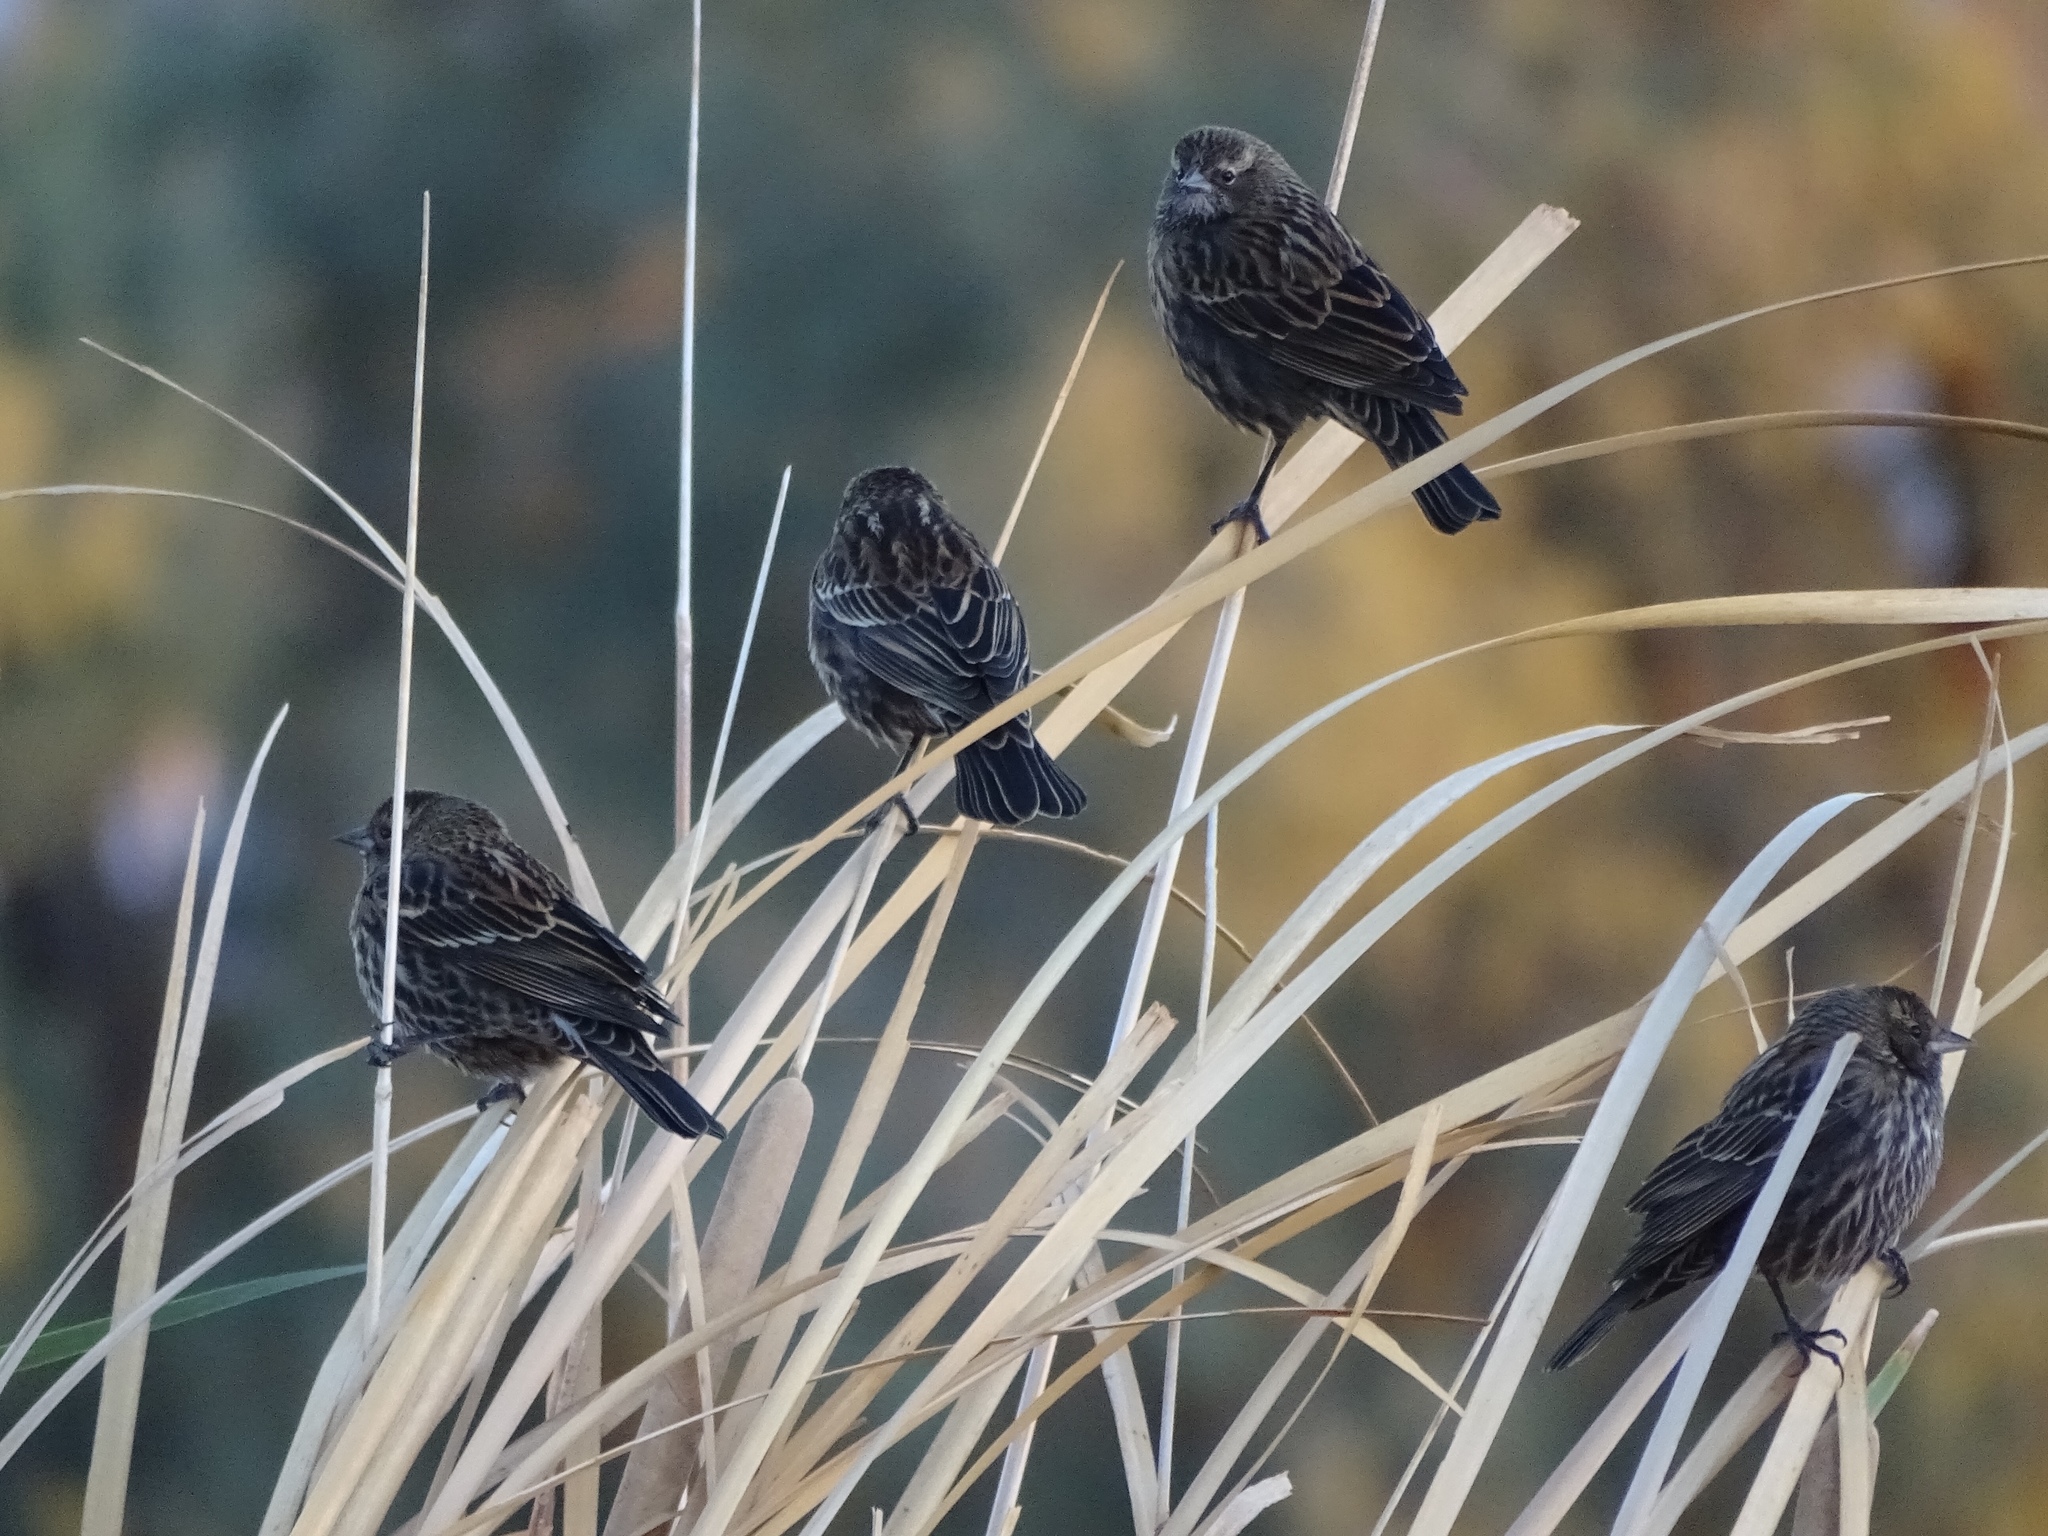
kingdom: Animalia
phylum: Chordata
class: Aves
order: Passeriformes
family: Icteridae
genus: Agelaius
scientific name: Agelaius phoeniceus
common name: Red-winged blackbird
